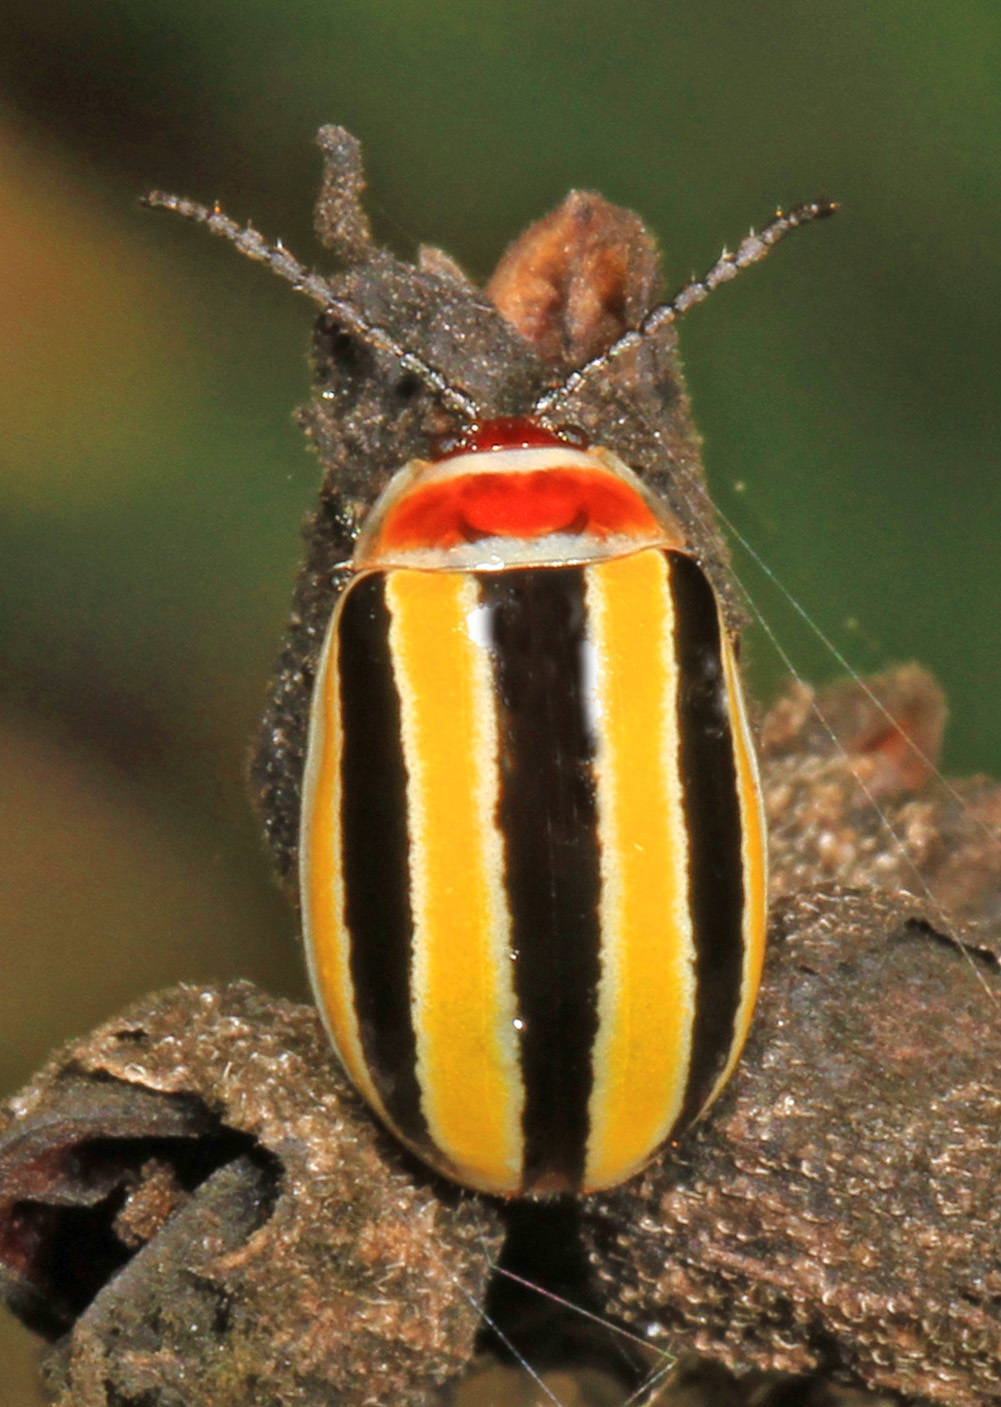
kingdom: Animalia
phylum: Arthropoda
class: Insecta
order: Coleoptera
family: Chrysomelidae
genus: Kuschelina
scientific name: Kuschelina floridana
